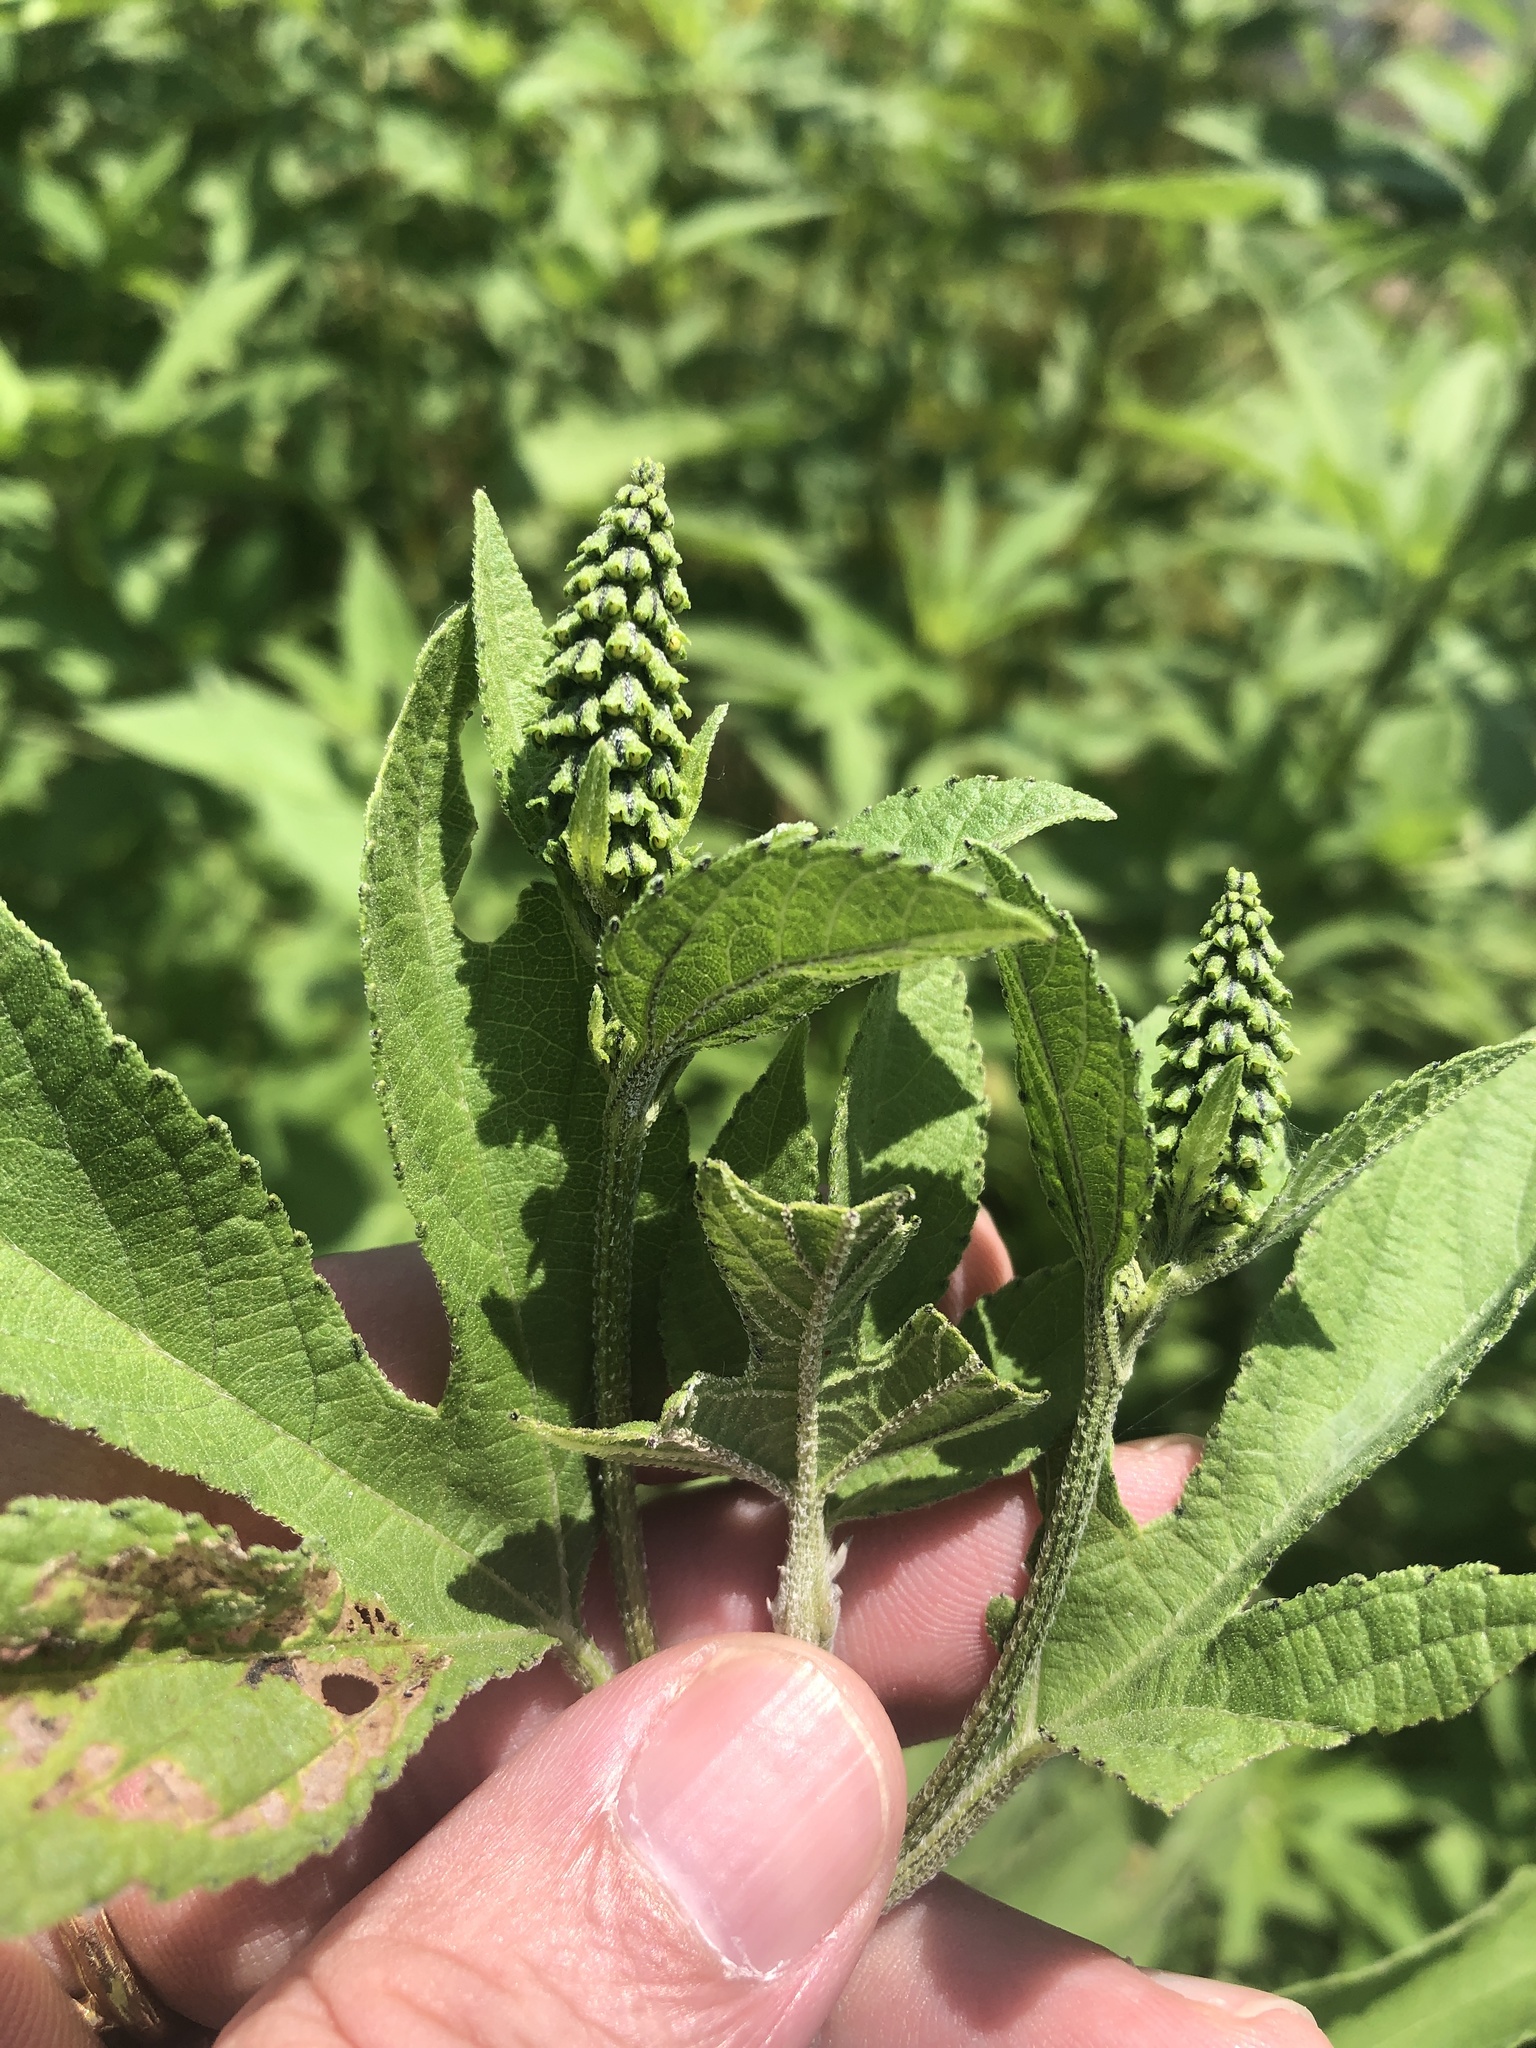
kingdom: Plantae
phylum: Tracheophyta
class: Magnoliopsida
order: Asterales
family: Asteraceae
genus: Ambrosia
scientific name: Ambrosia trifida
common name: Giant ragweed
